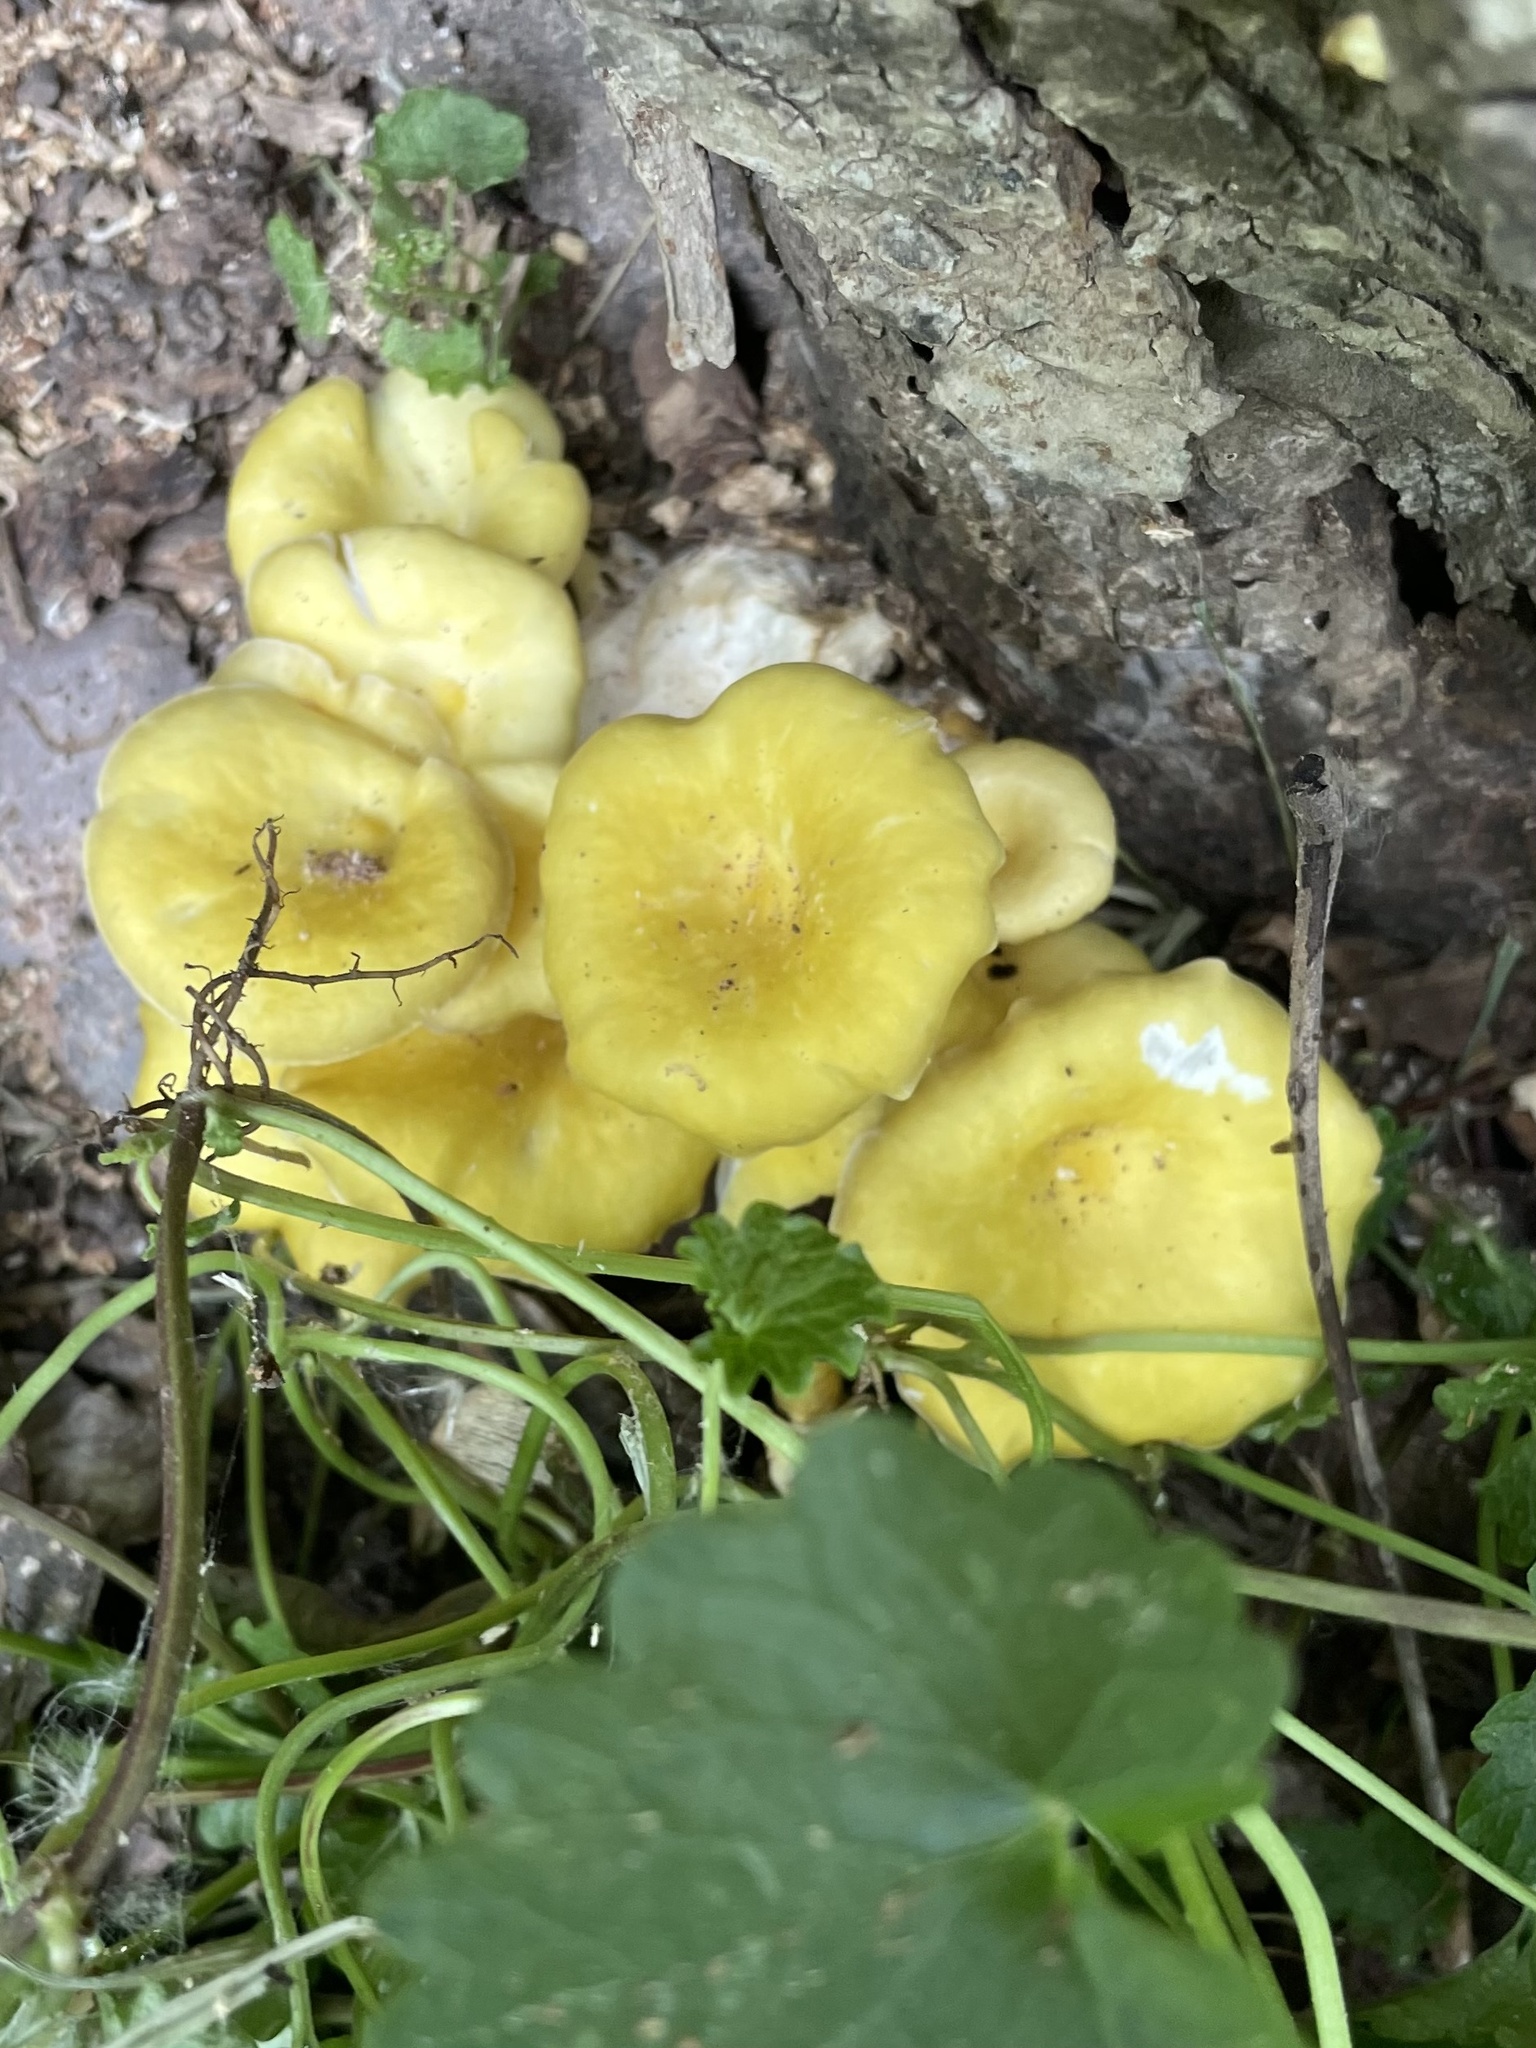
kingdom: Fungi
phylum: Basidiomycota
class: Agaricomycetes
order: Agaricales
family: Pleurotaceae
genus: Pleurotus
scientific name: Pleurotus citrinopileatus
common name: Golden oyster mushroom
